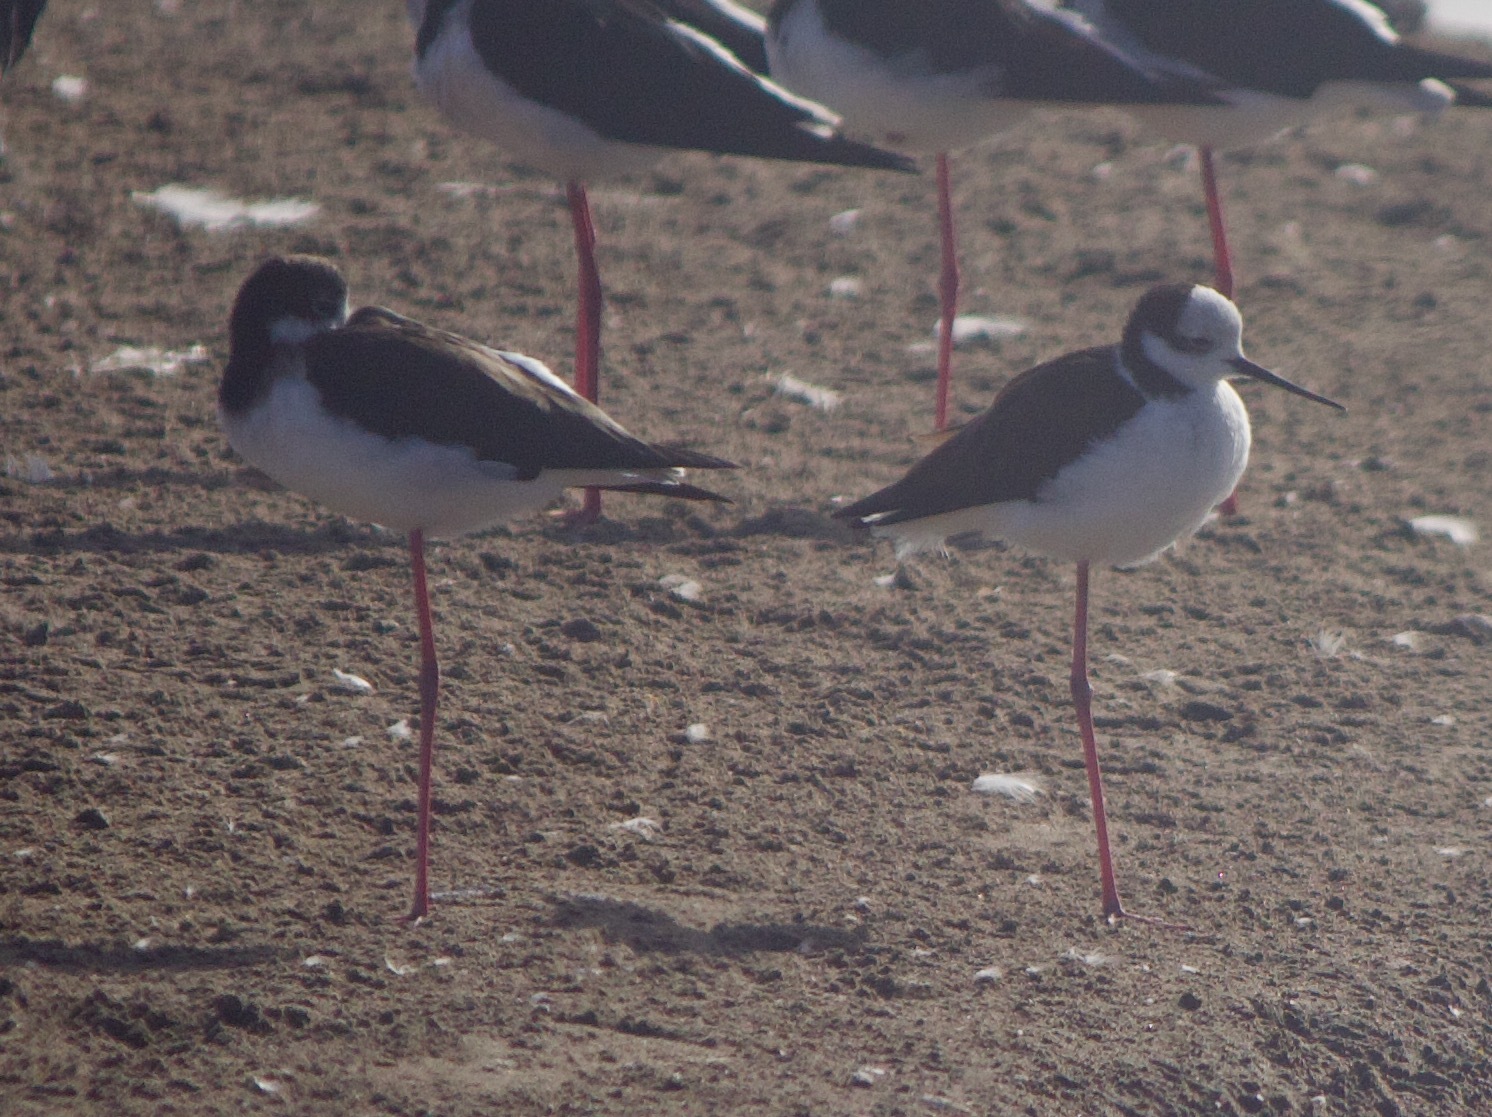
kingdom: Animalia
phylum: Chordata
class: Aves
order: Charadriiformes
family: Recurvirostridae
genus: Himantopus
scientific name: Himantopus mexicanus
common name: Black-necked stilt
